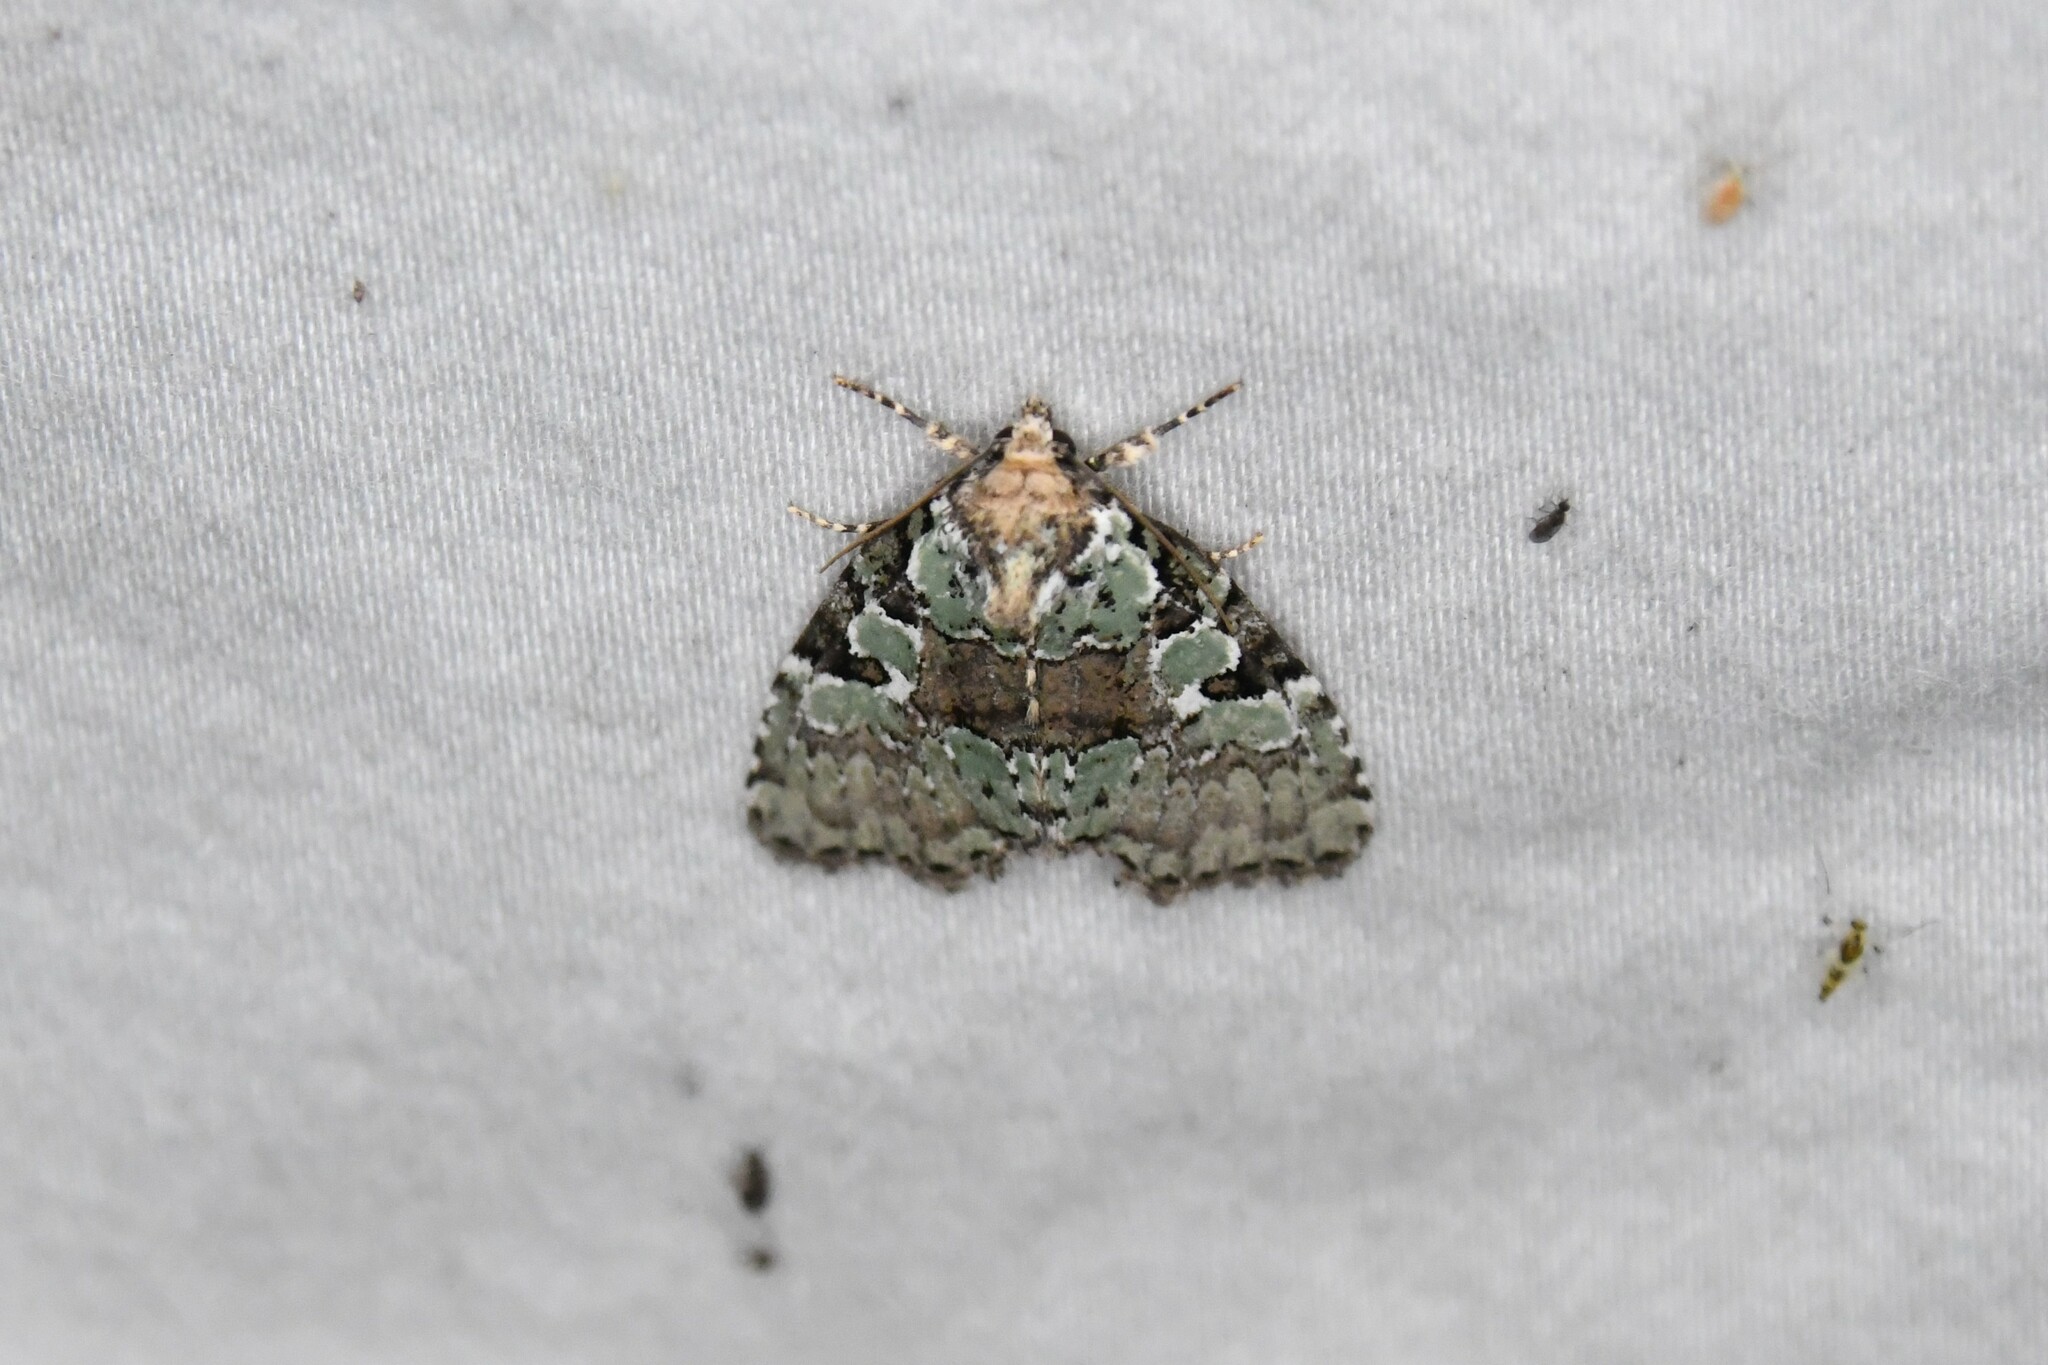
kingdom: Animalia
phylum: Arthropoda
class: Insecta
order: Lepidoptera
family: Noctuidae
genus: Leuconycta
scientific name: Leuconycta lepidula
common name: Marbled-green leuconycta moth
